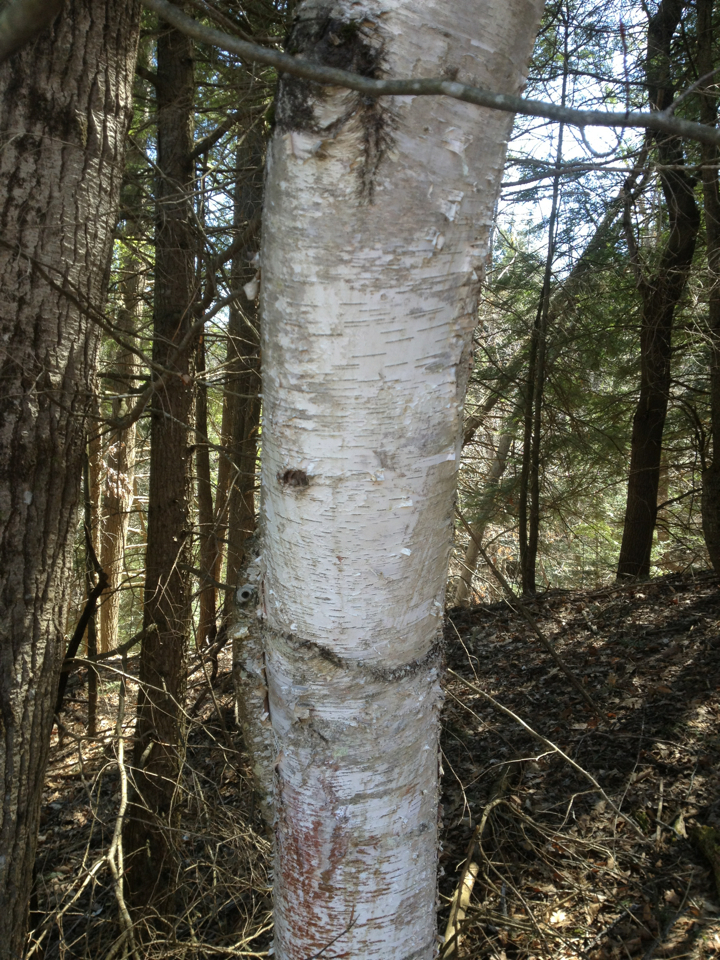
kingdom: Plantae
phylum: Tracheophyta
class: Magnoliopsida
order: Fagales
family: Betulaceae
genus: Betula
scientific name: Betula papyrifera
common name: Paper birch
